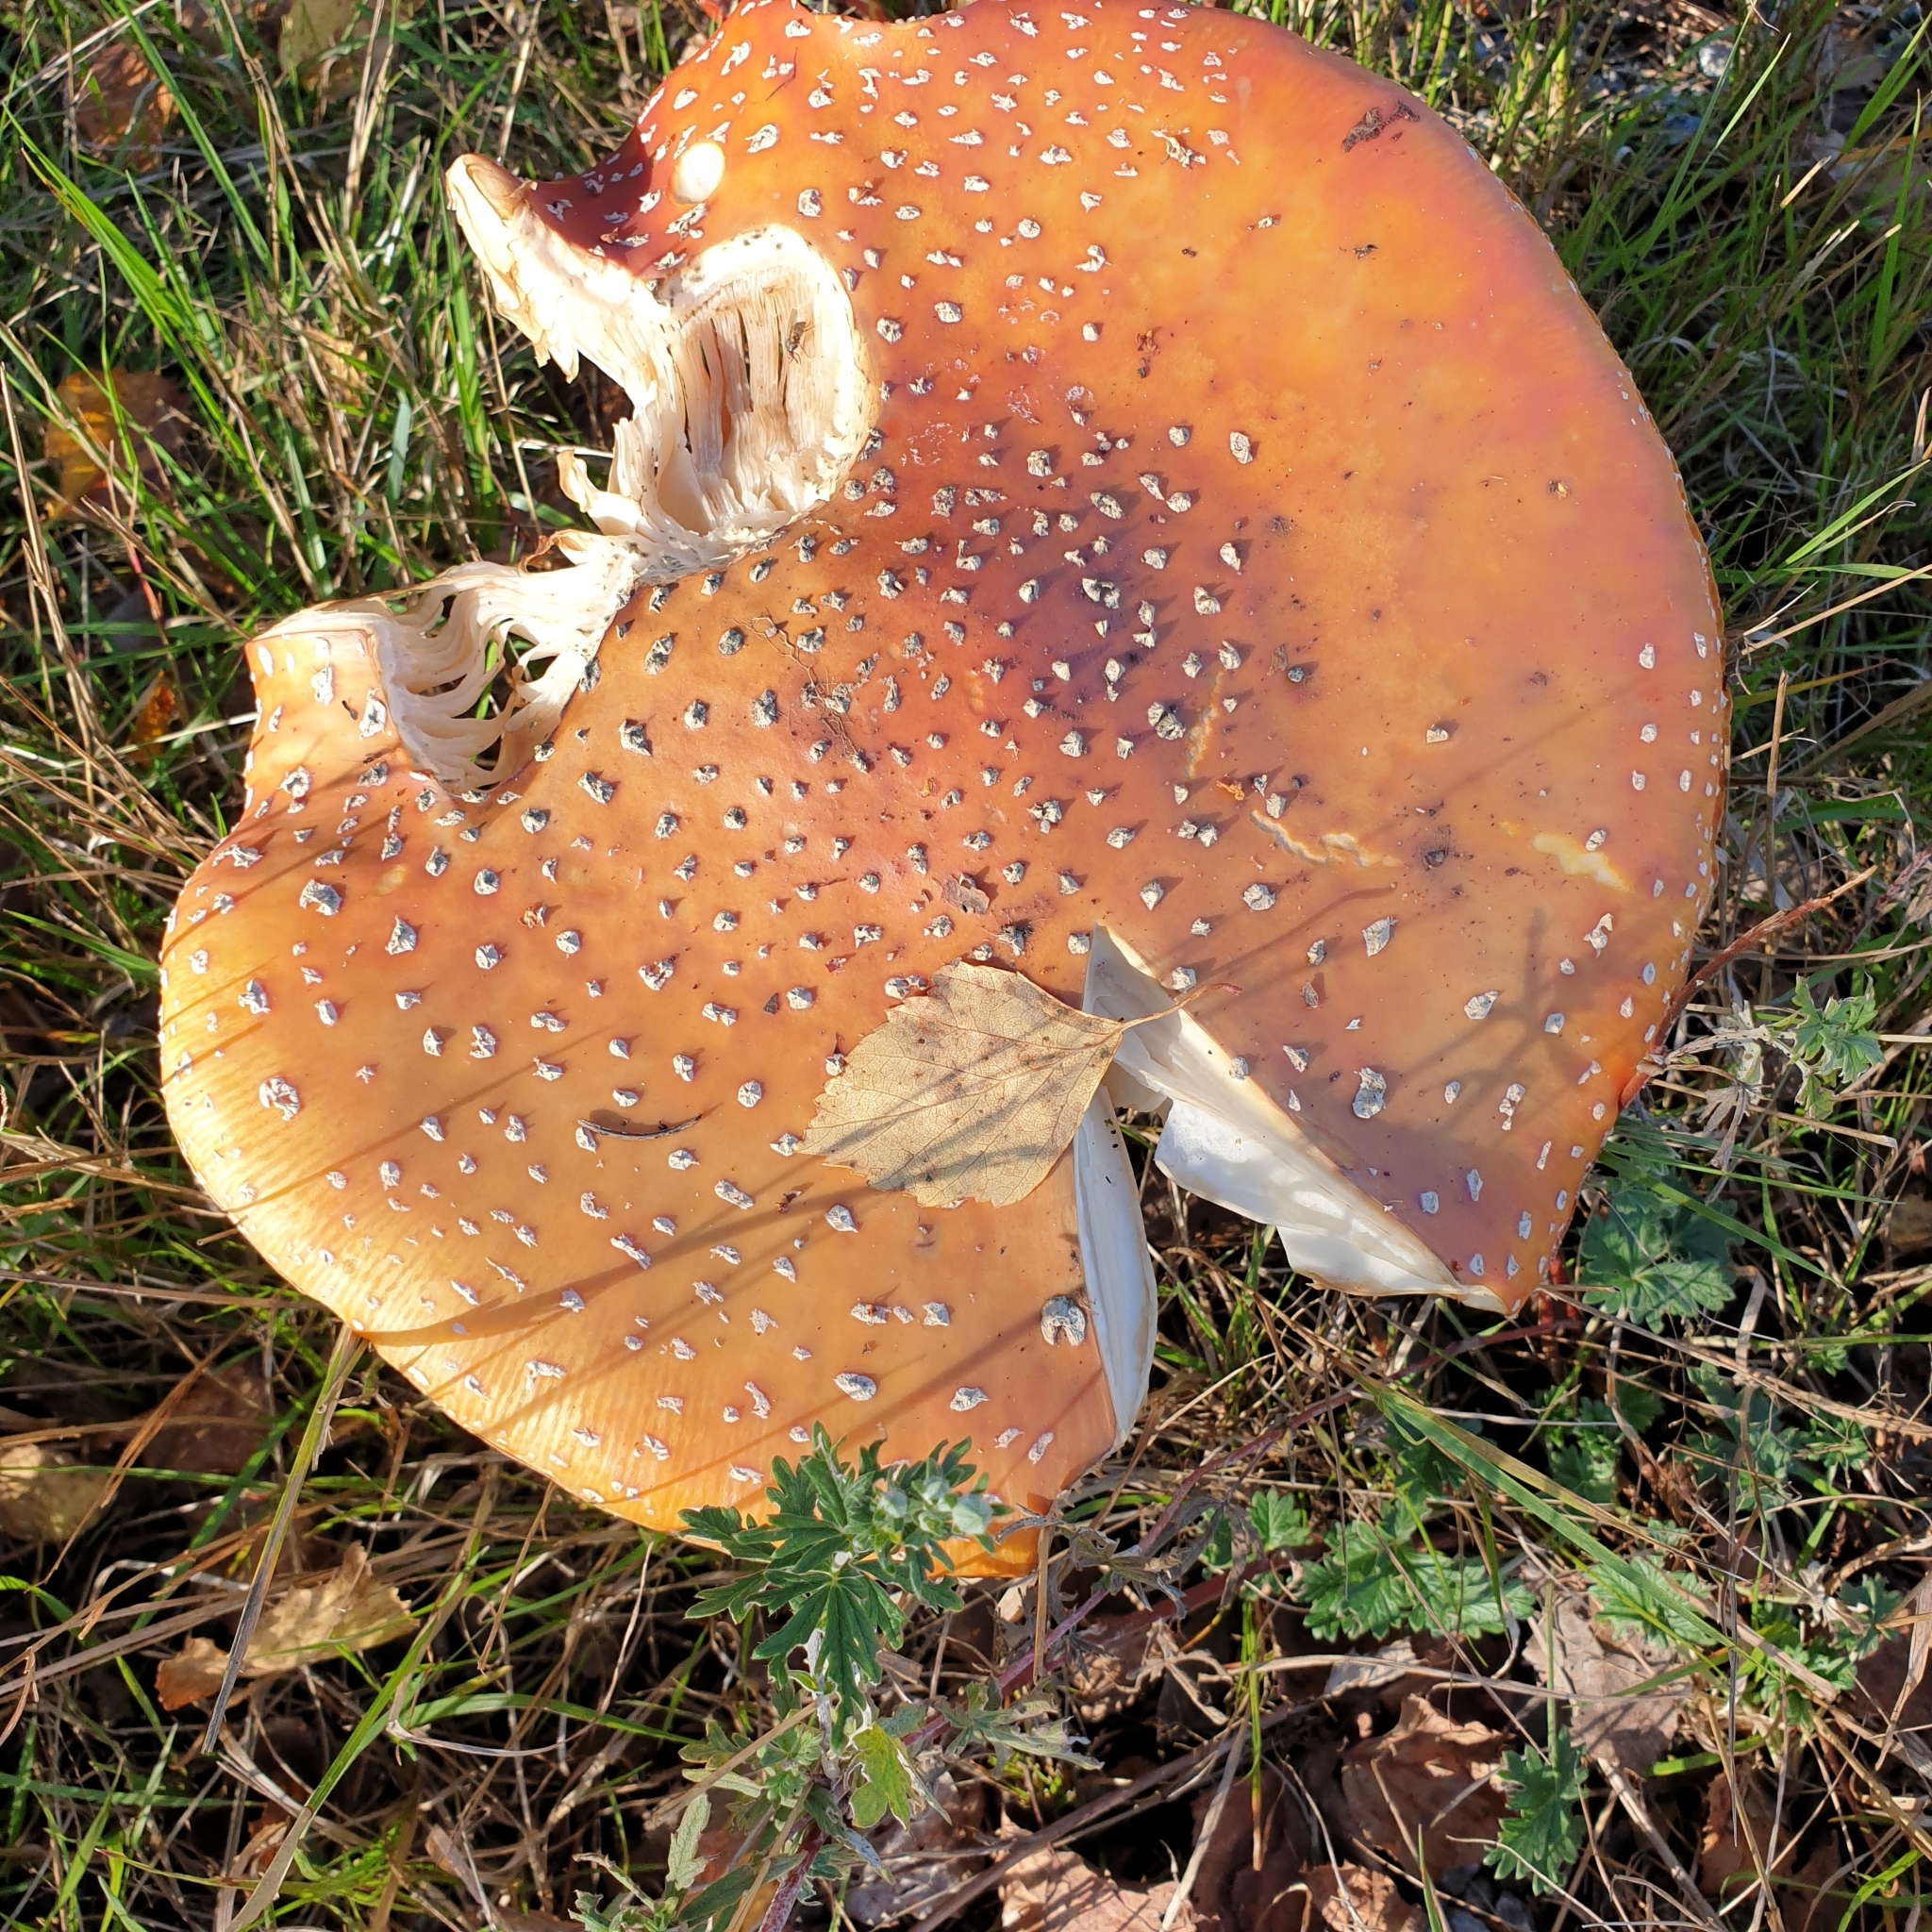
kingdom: Fungi
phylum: Basidiomycota
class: Agaricomycetes
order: Agaricales
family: Amanitaceae
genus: Amanita
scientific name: Amanita muscaria
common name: Fly agaric
